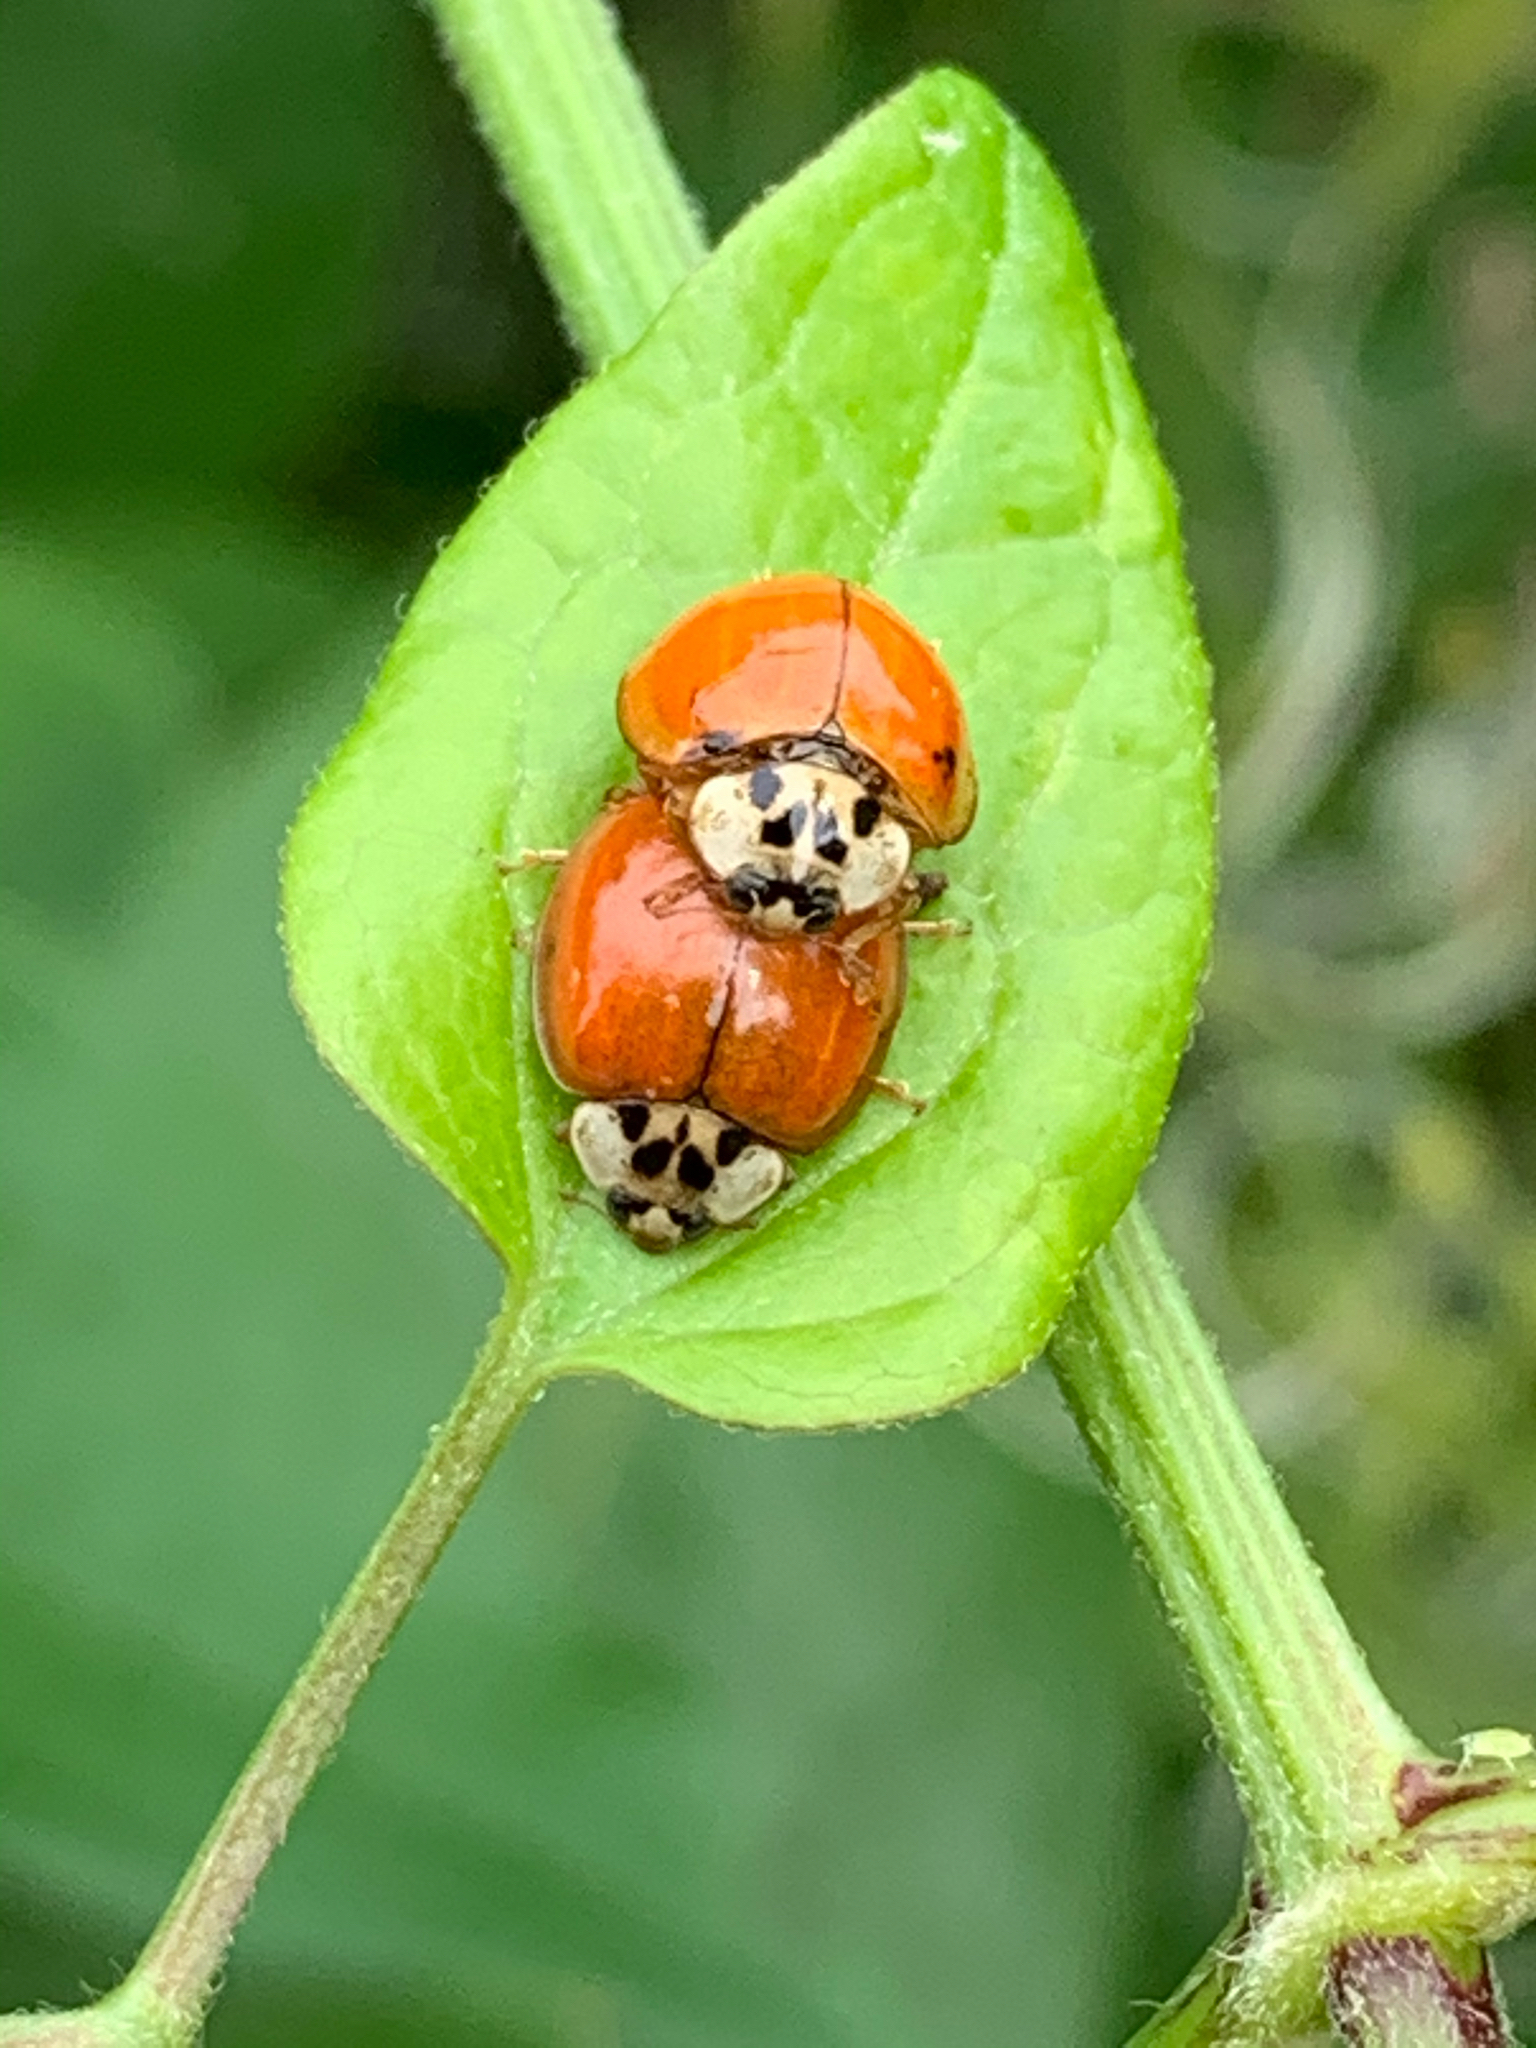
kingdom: Animalia
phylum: Arthropoda
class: Insecta
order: Coleoptera
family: Coccinellidae
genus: Harmonia
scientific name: Harmonia axyridis
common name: Harlequin ladybird
